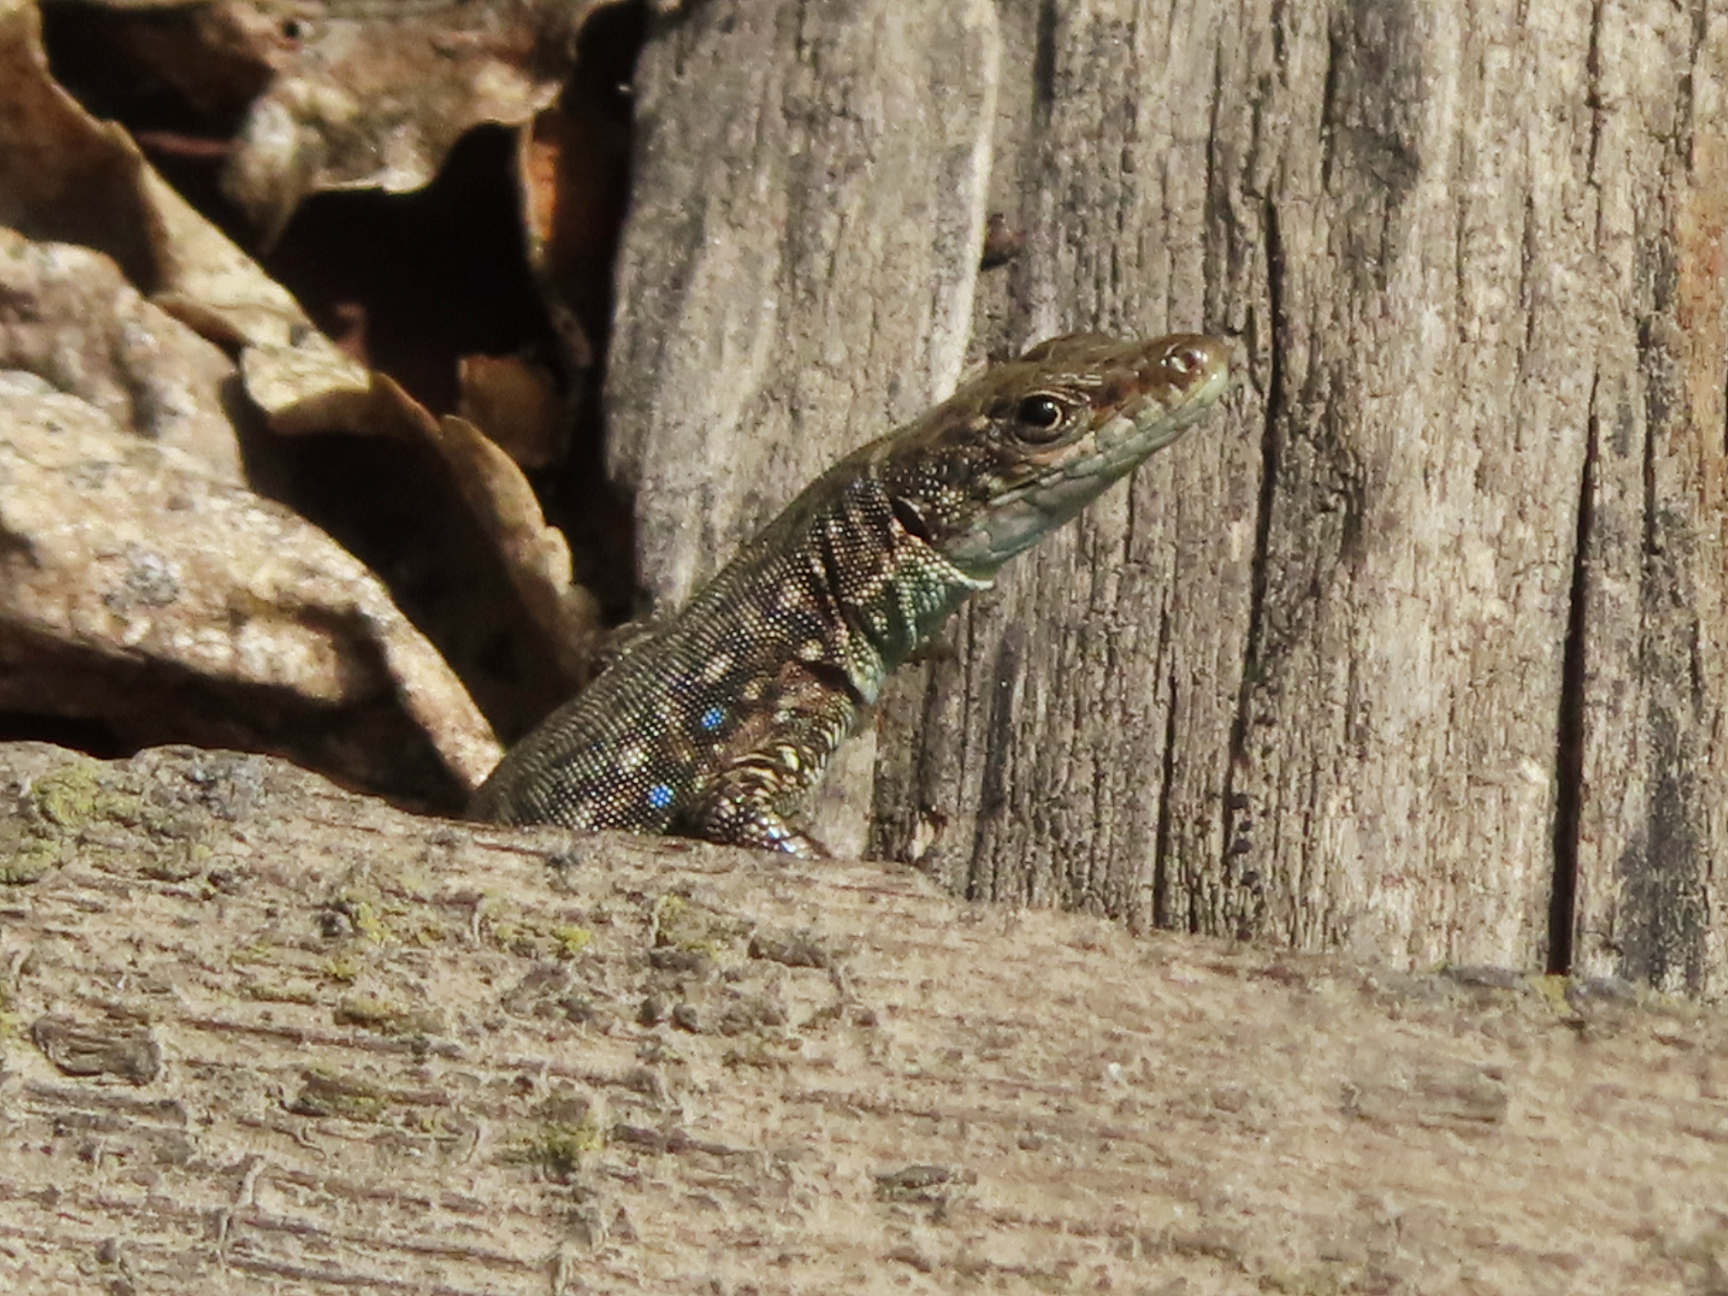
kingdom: Animalia
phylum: Chordata
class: Squamata
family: Lacertidae
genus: Darevskia
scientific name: Darevskia
